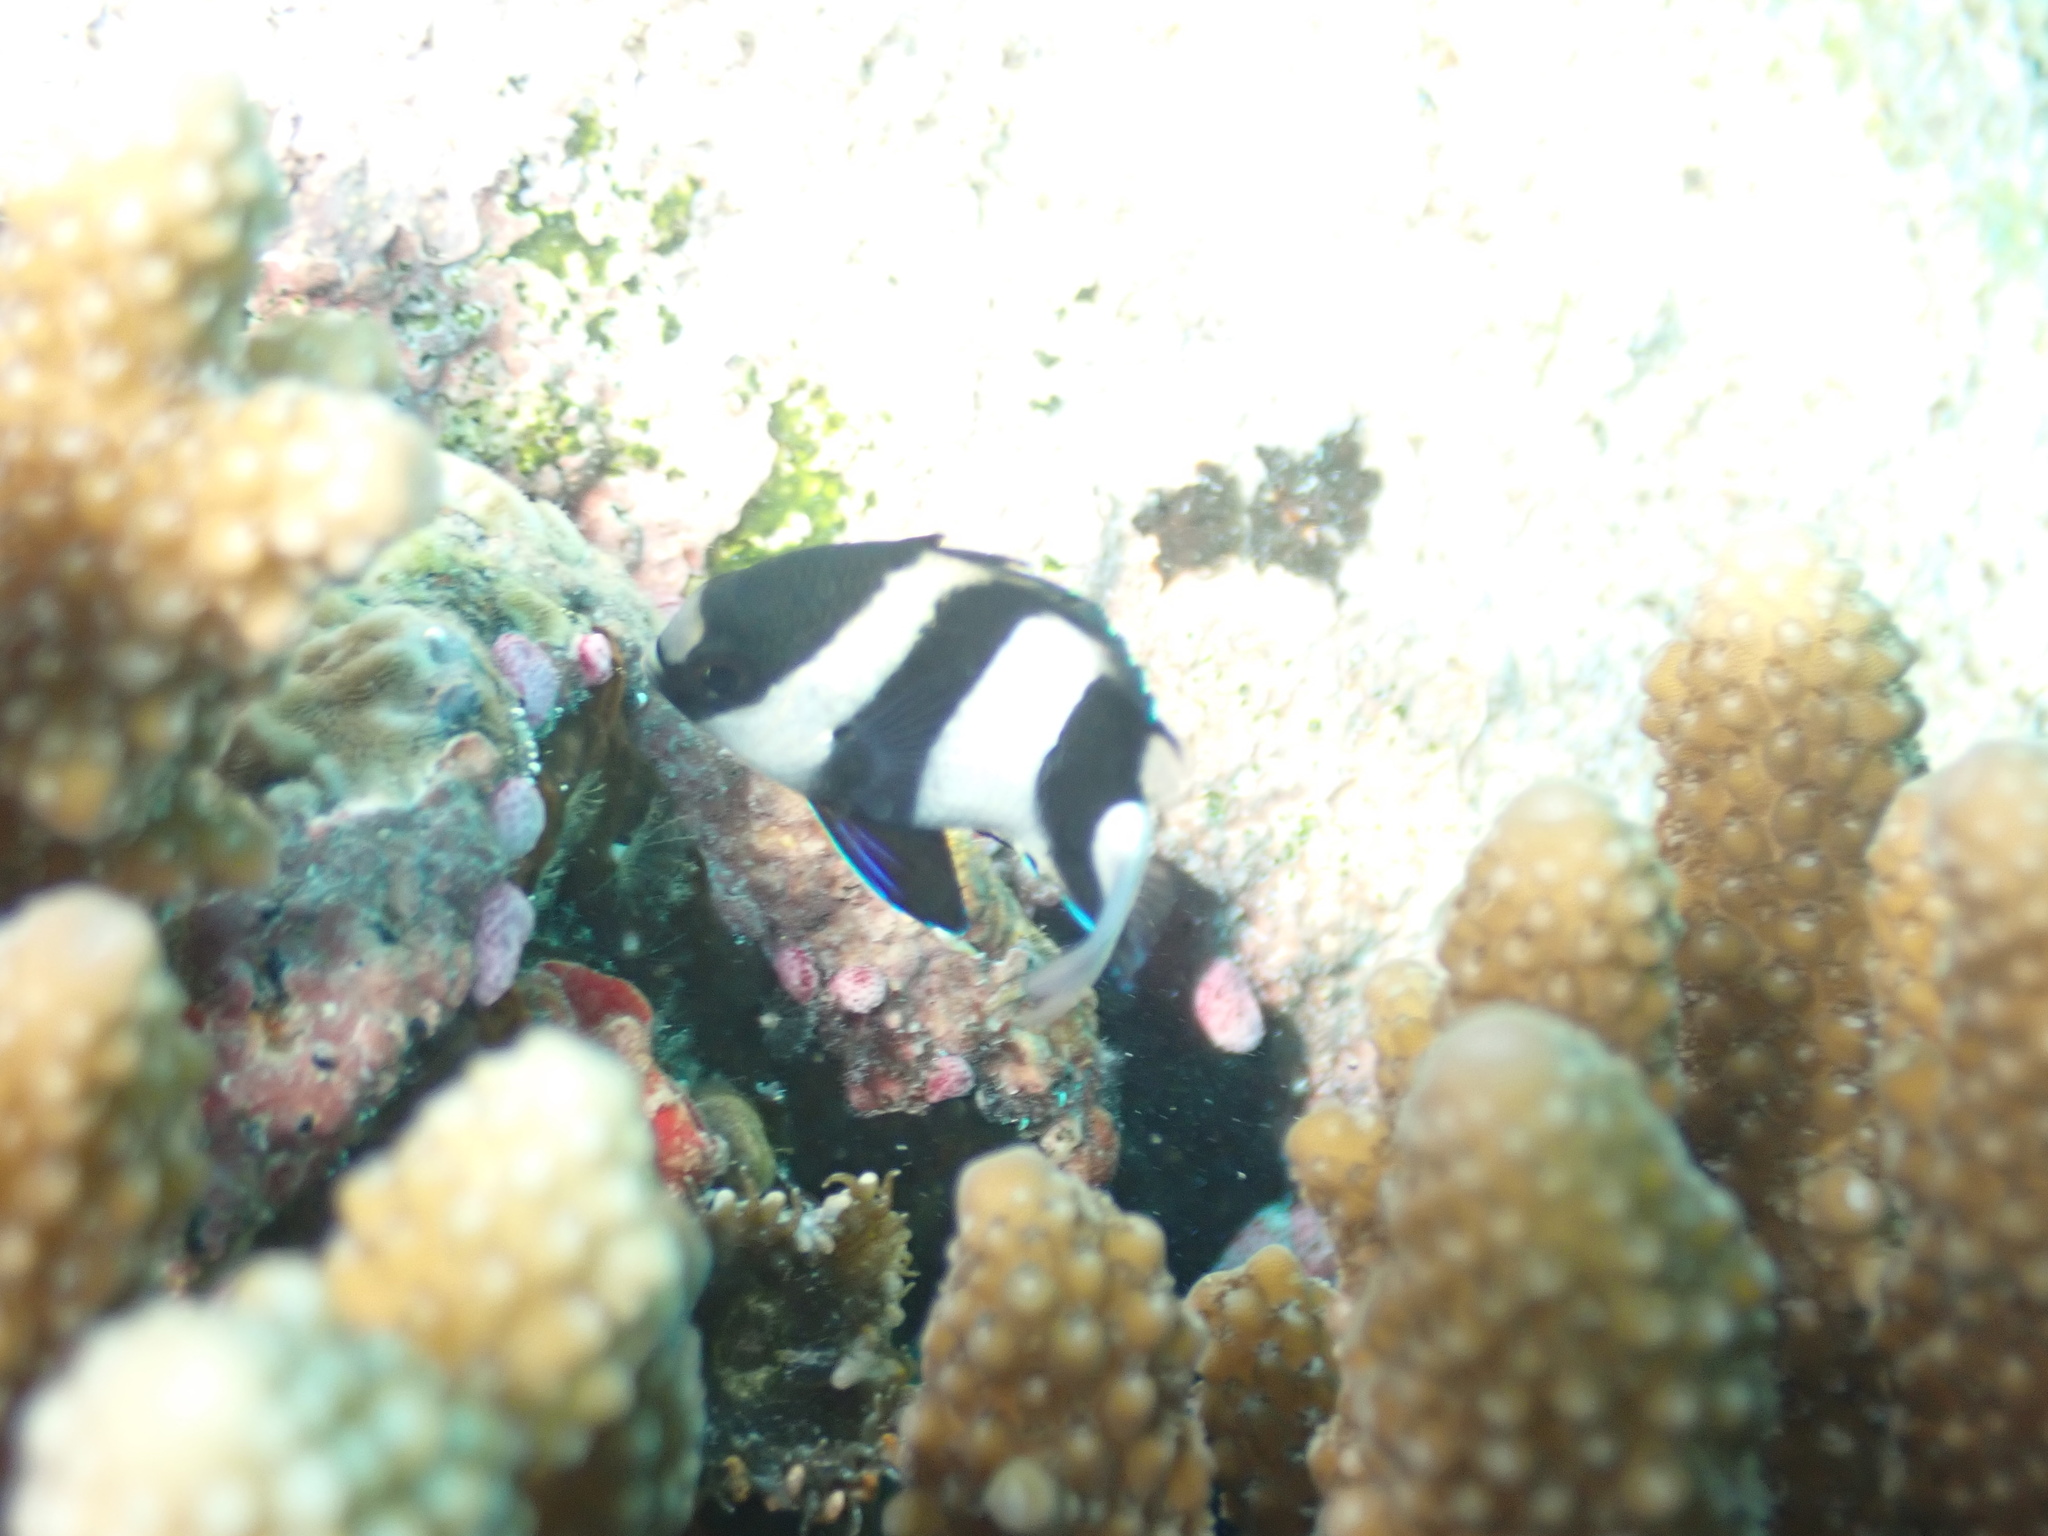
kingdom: Animalia
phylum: Chordata
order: Perciformes
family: Pomacentridae
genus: Dascyllus
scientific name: Dascyllus abudafur
